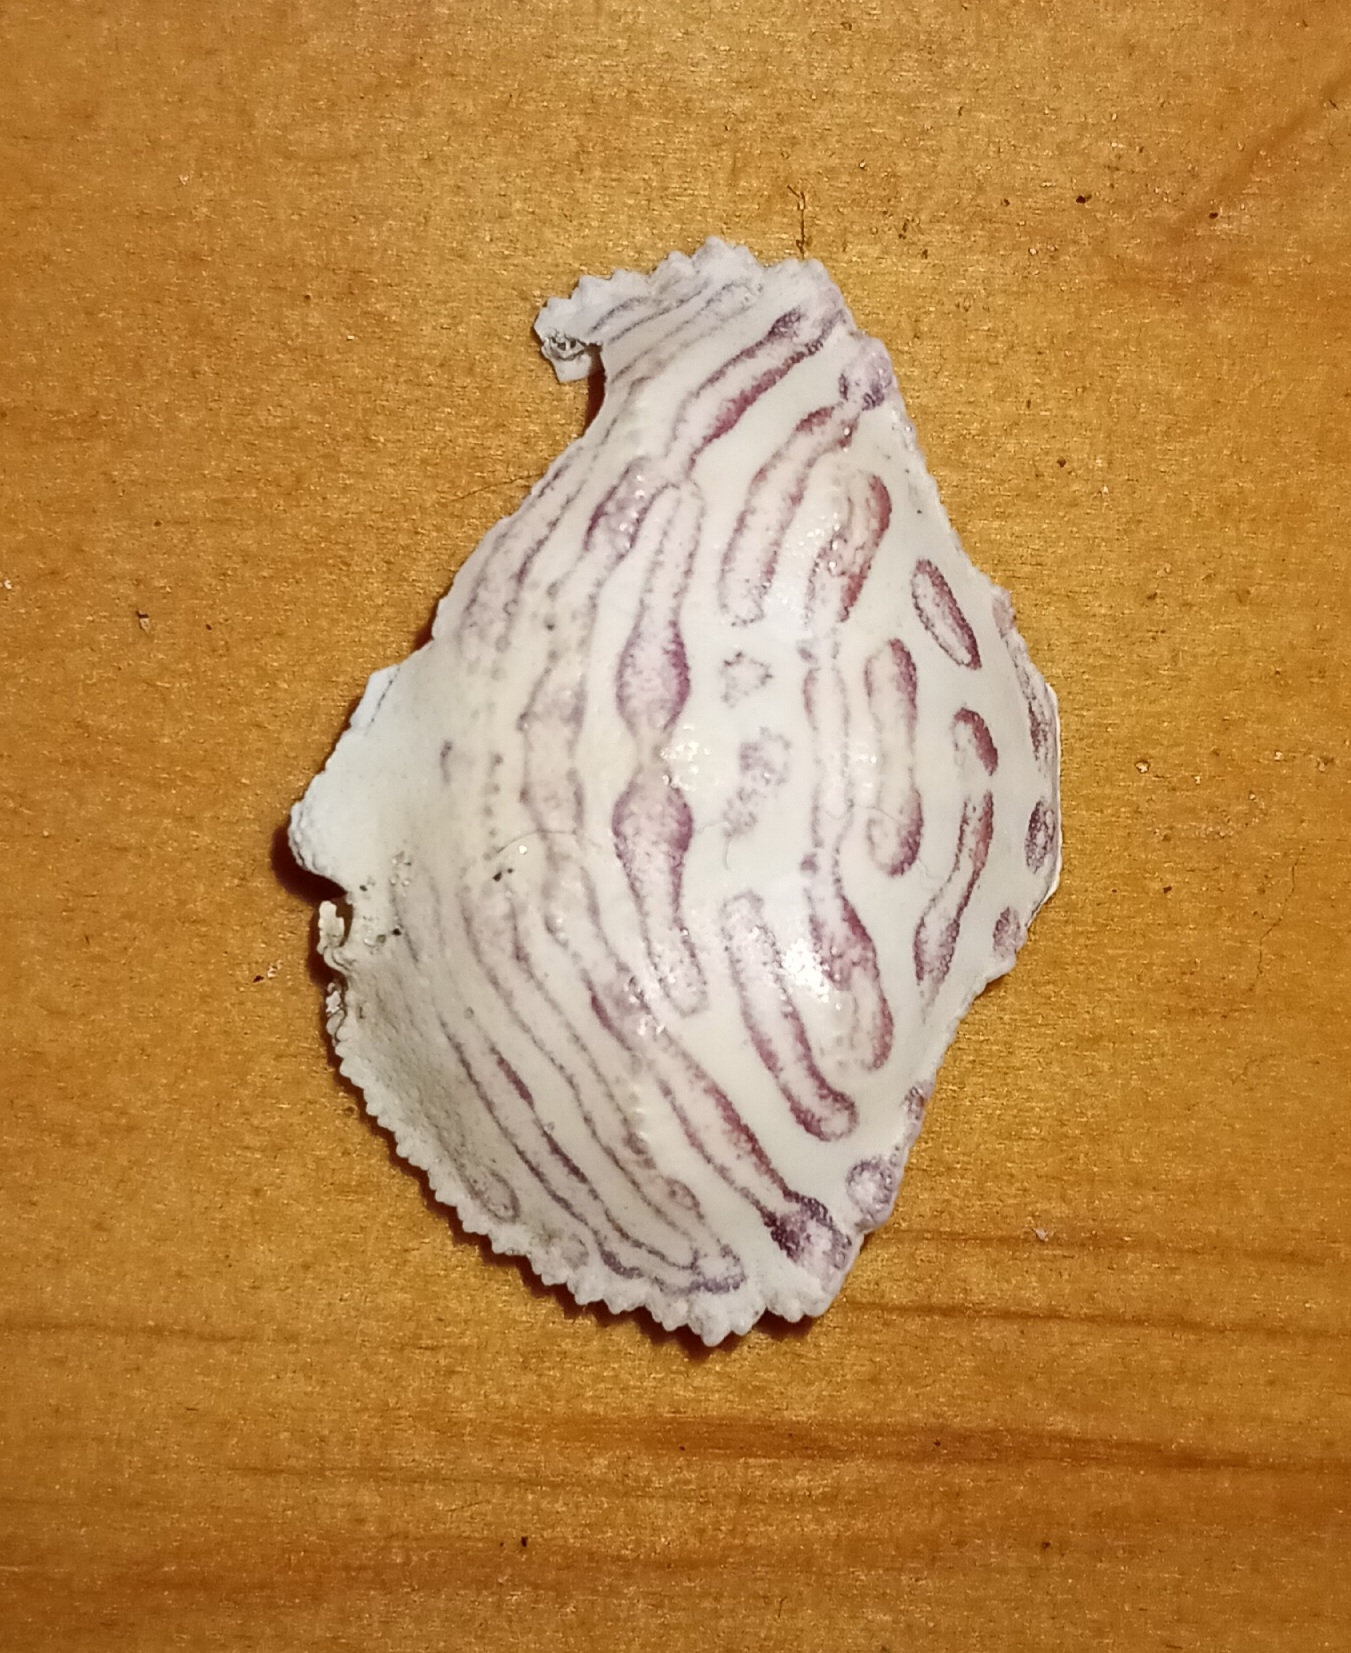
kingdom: Animalia
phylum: Arthropoda
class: Malacostraca
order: Decapoda
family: Aethridae
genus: Hepatus
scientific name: Hepatus epheliticus
